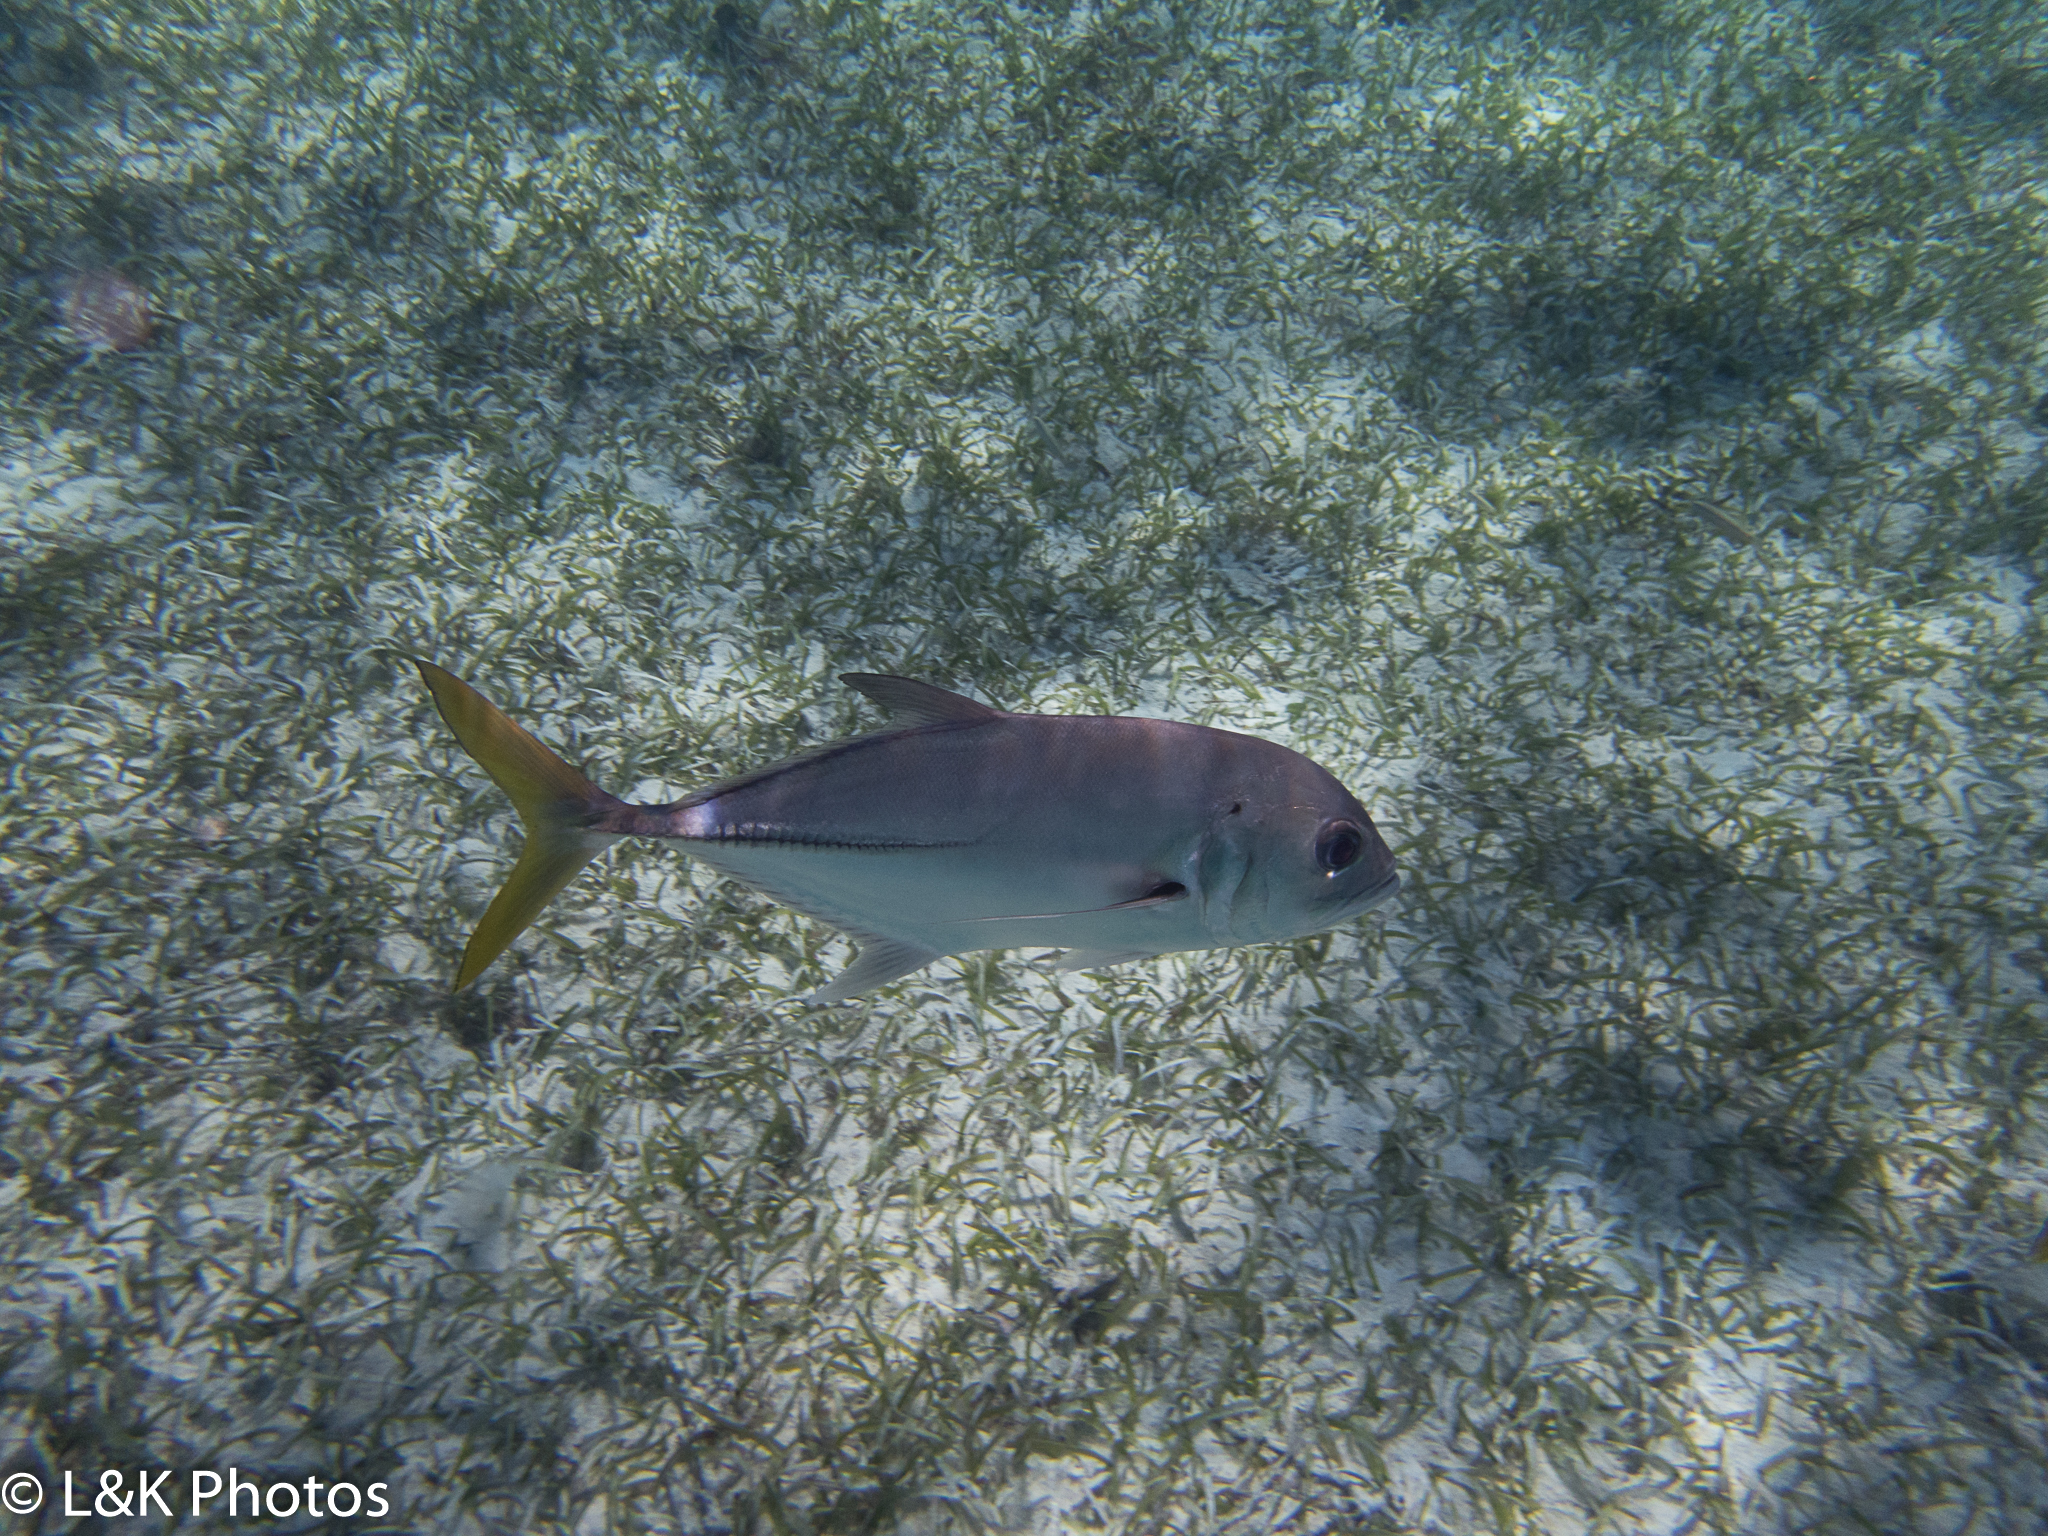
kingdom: Animalia
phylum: Chordata
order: Perciformes
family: Carangidae
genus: Caranx
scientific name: Caranx latus
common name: Horse eye jack
